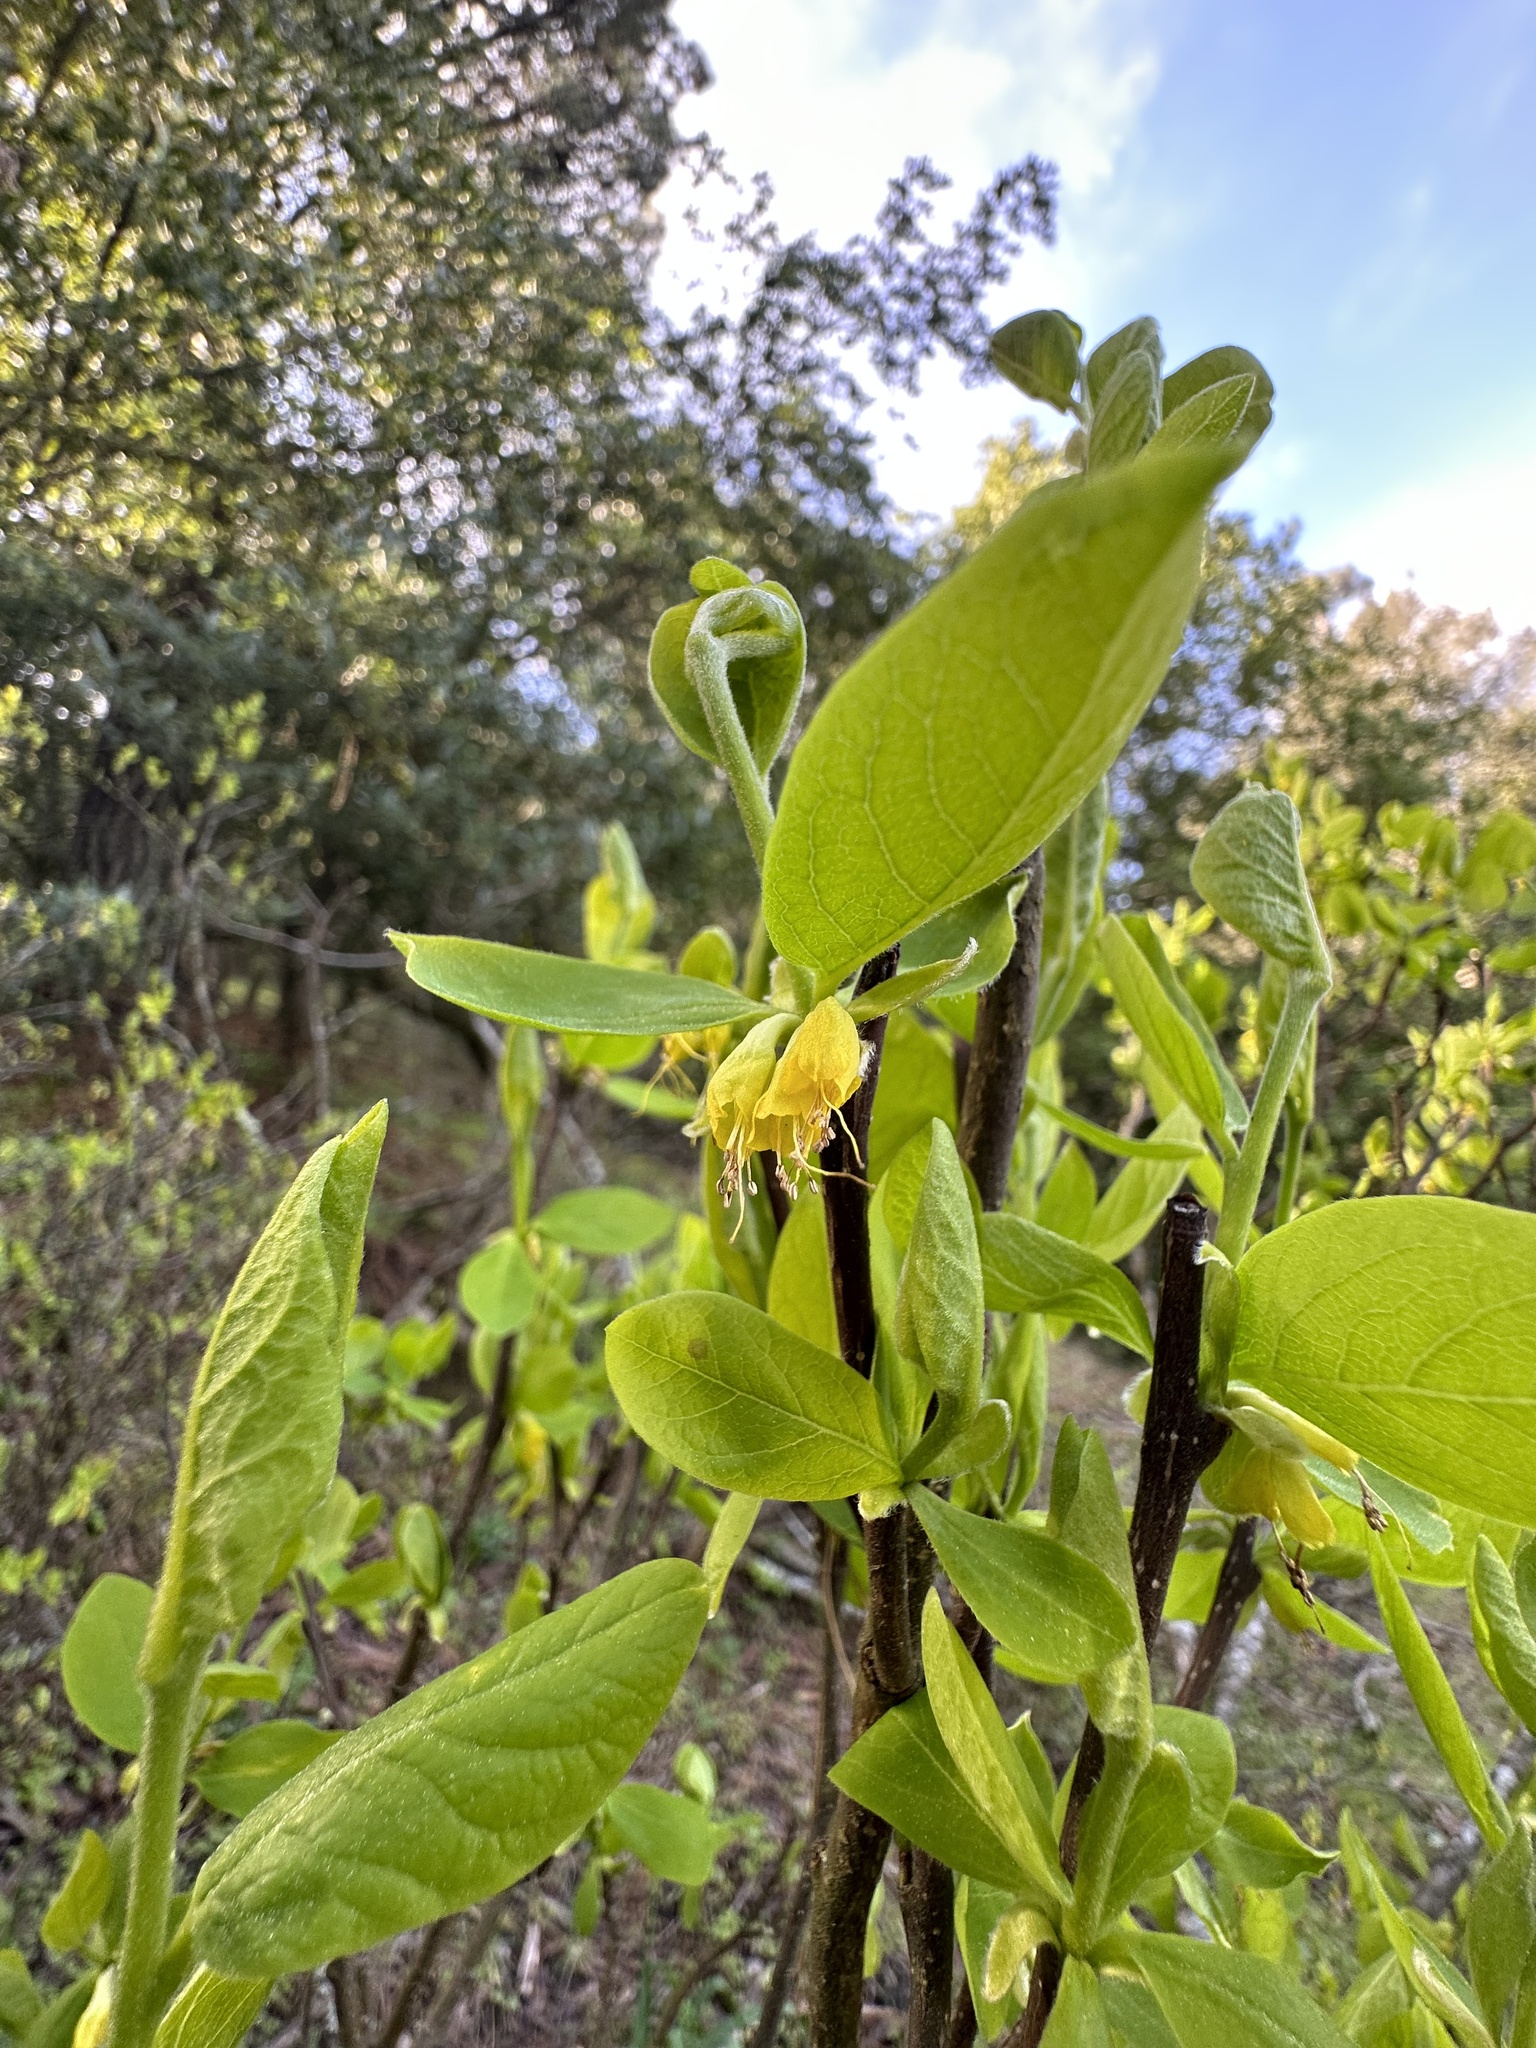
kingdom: Plantae
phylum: Tracheophyta
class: Magnoliopsida
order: Malvales
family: Thymelaeaceae
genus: Dirca
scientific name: Dirca occidentalis
